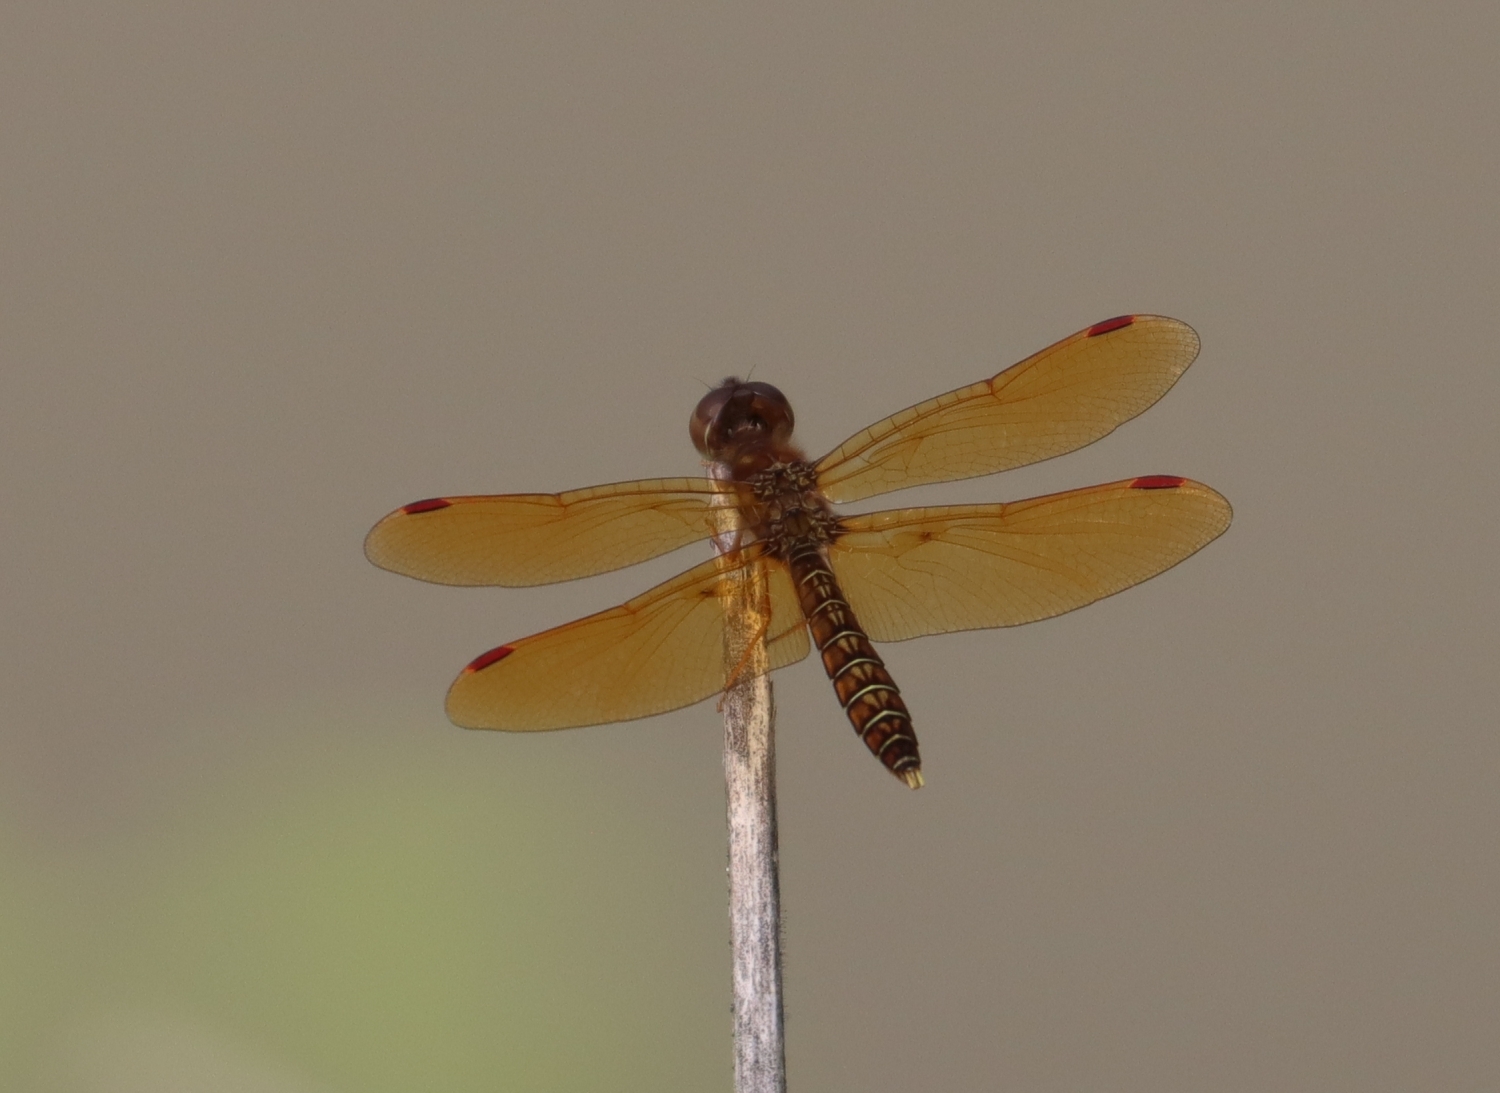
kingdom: Animalia
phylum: Arthropoda
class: Insecta
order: Odonata
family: Libellulidae
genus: Perithemis
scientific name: Perithemis tenera
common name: Eastern amberwing
